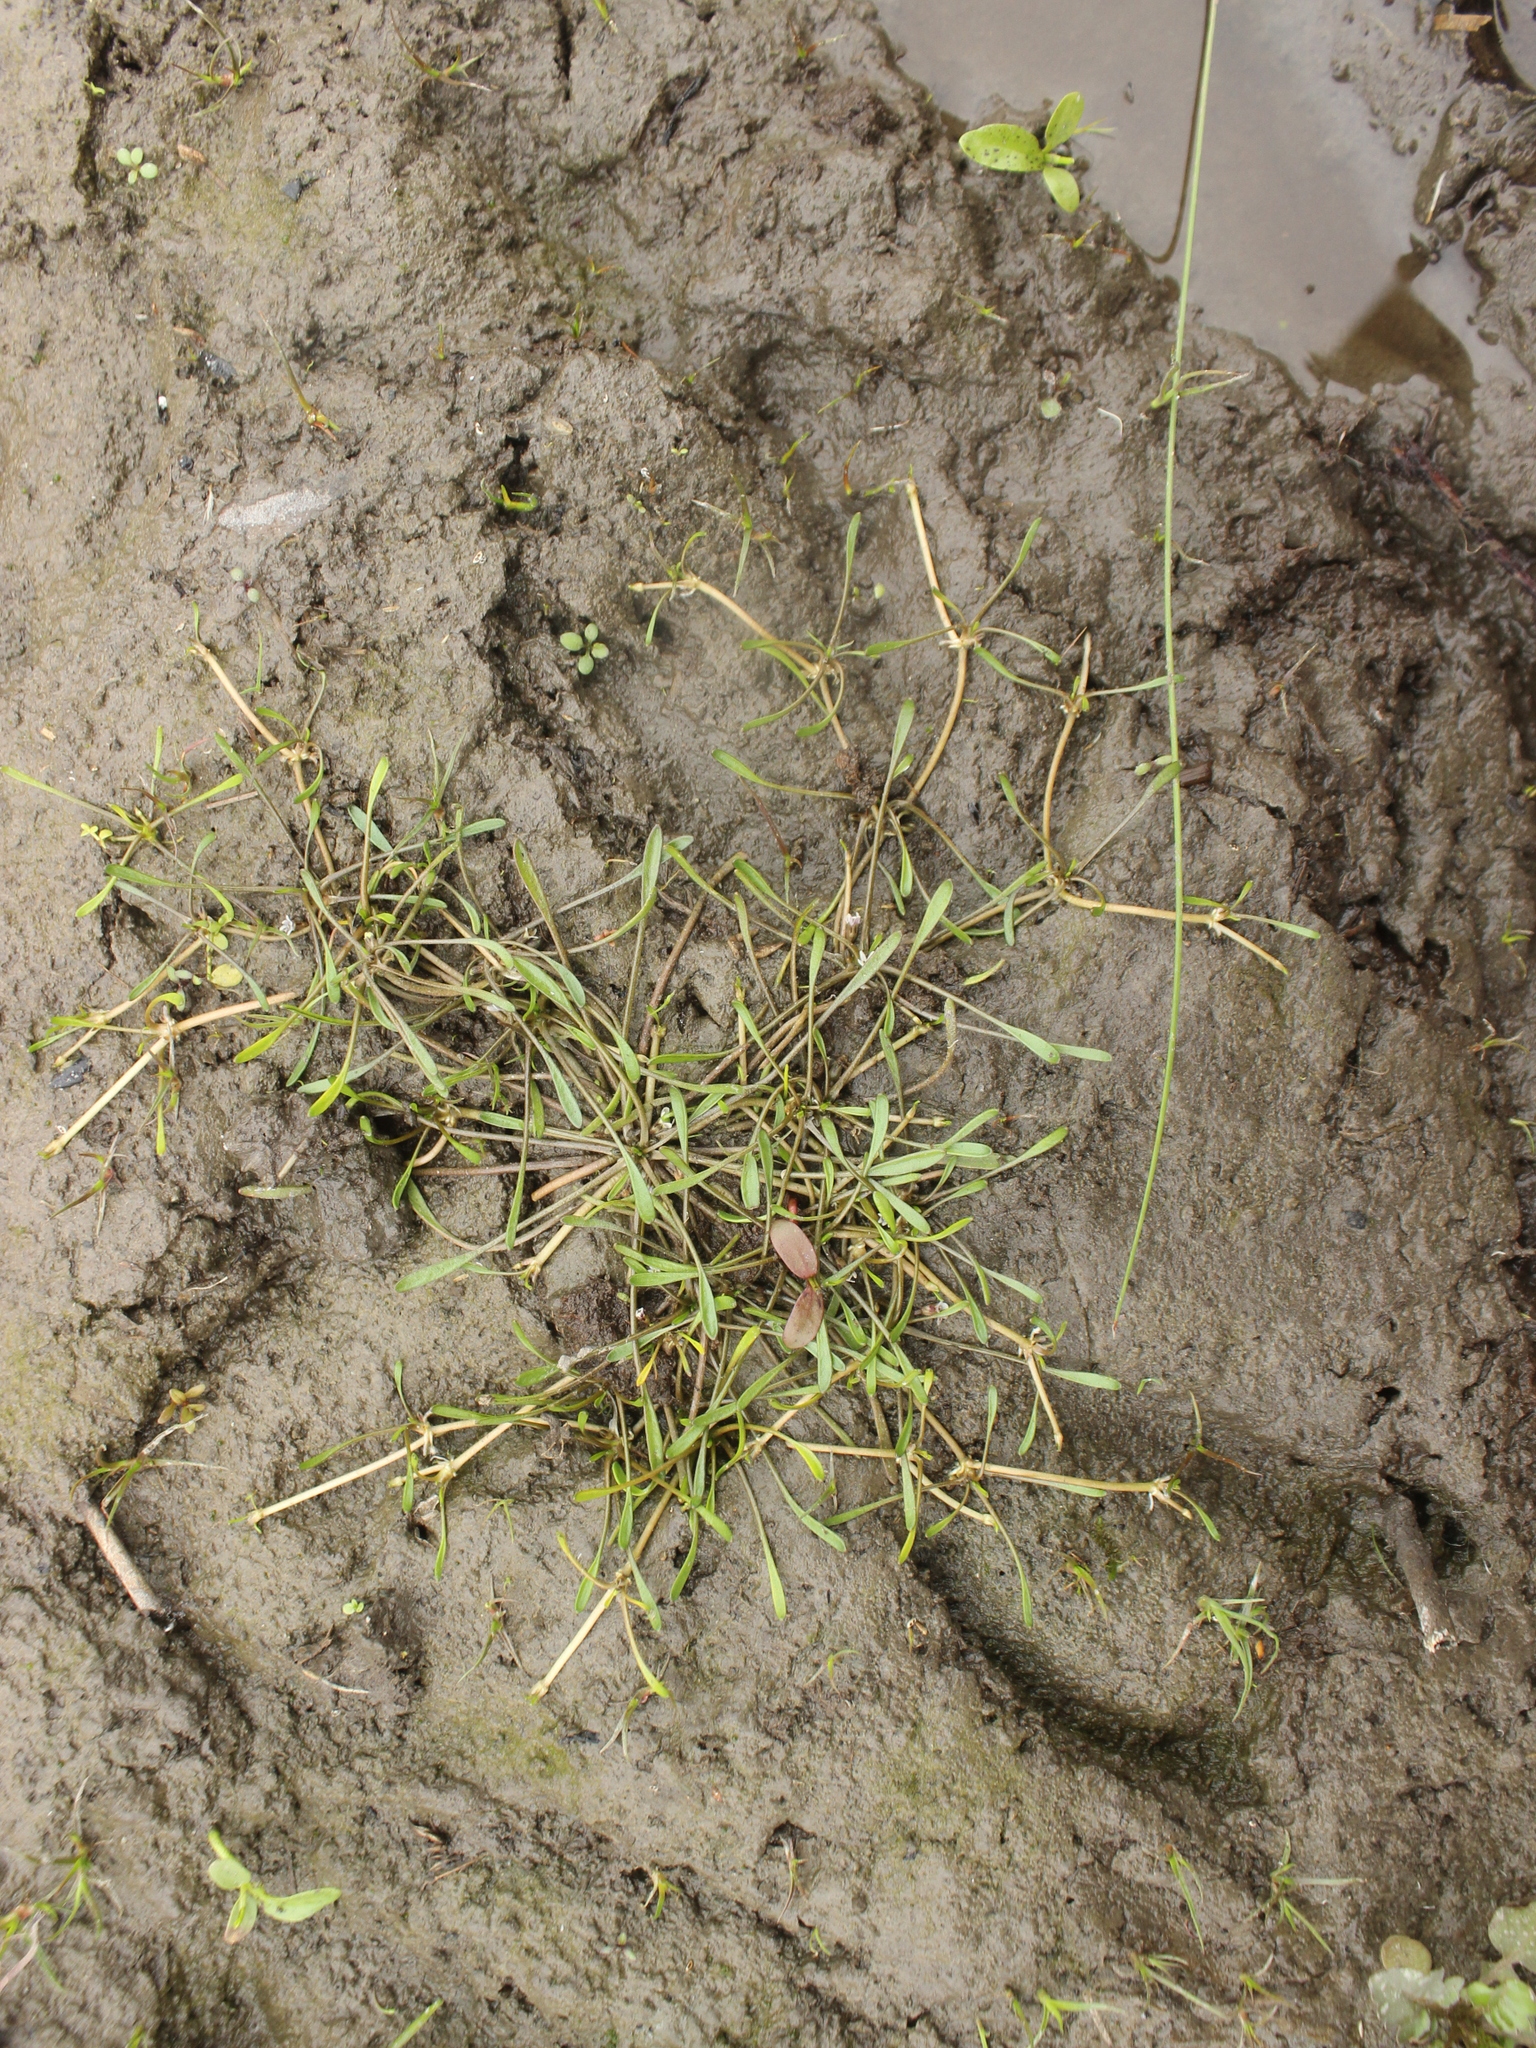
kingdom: Plantae
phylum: Tracheophyta
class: Magnoliopsida
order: Lamiales
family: Scrophulariaceae
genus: Limosella
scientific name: Limosella australis
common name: Welsh mudwort
